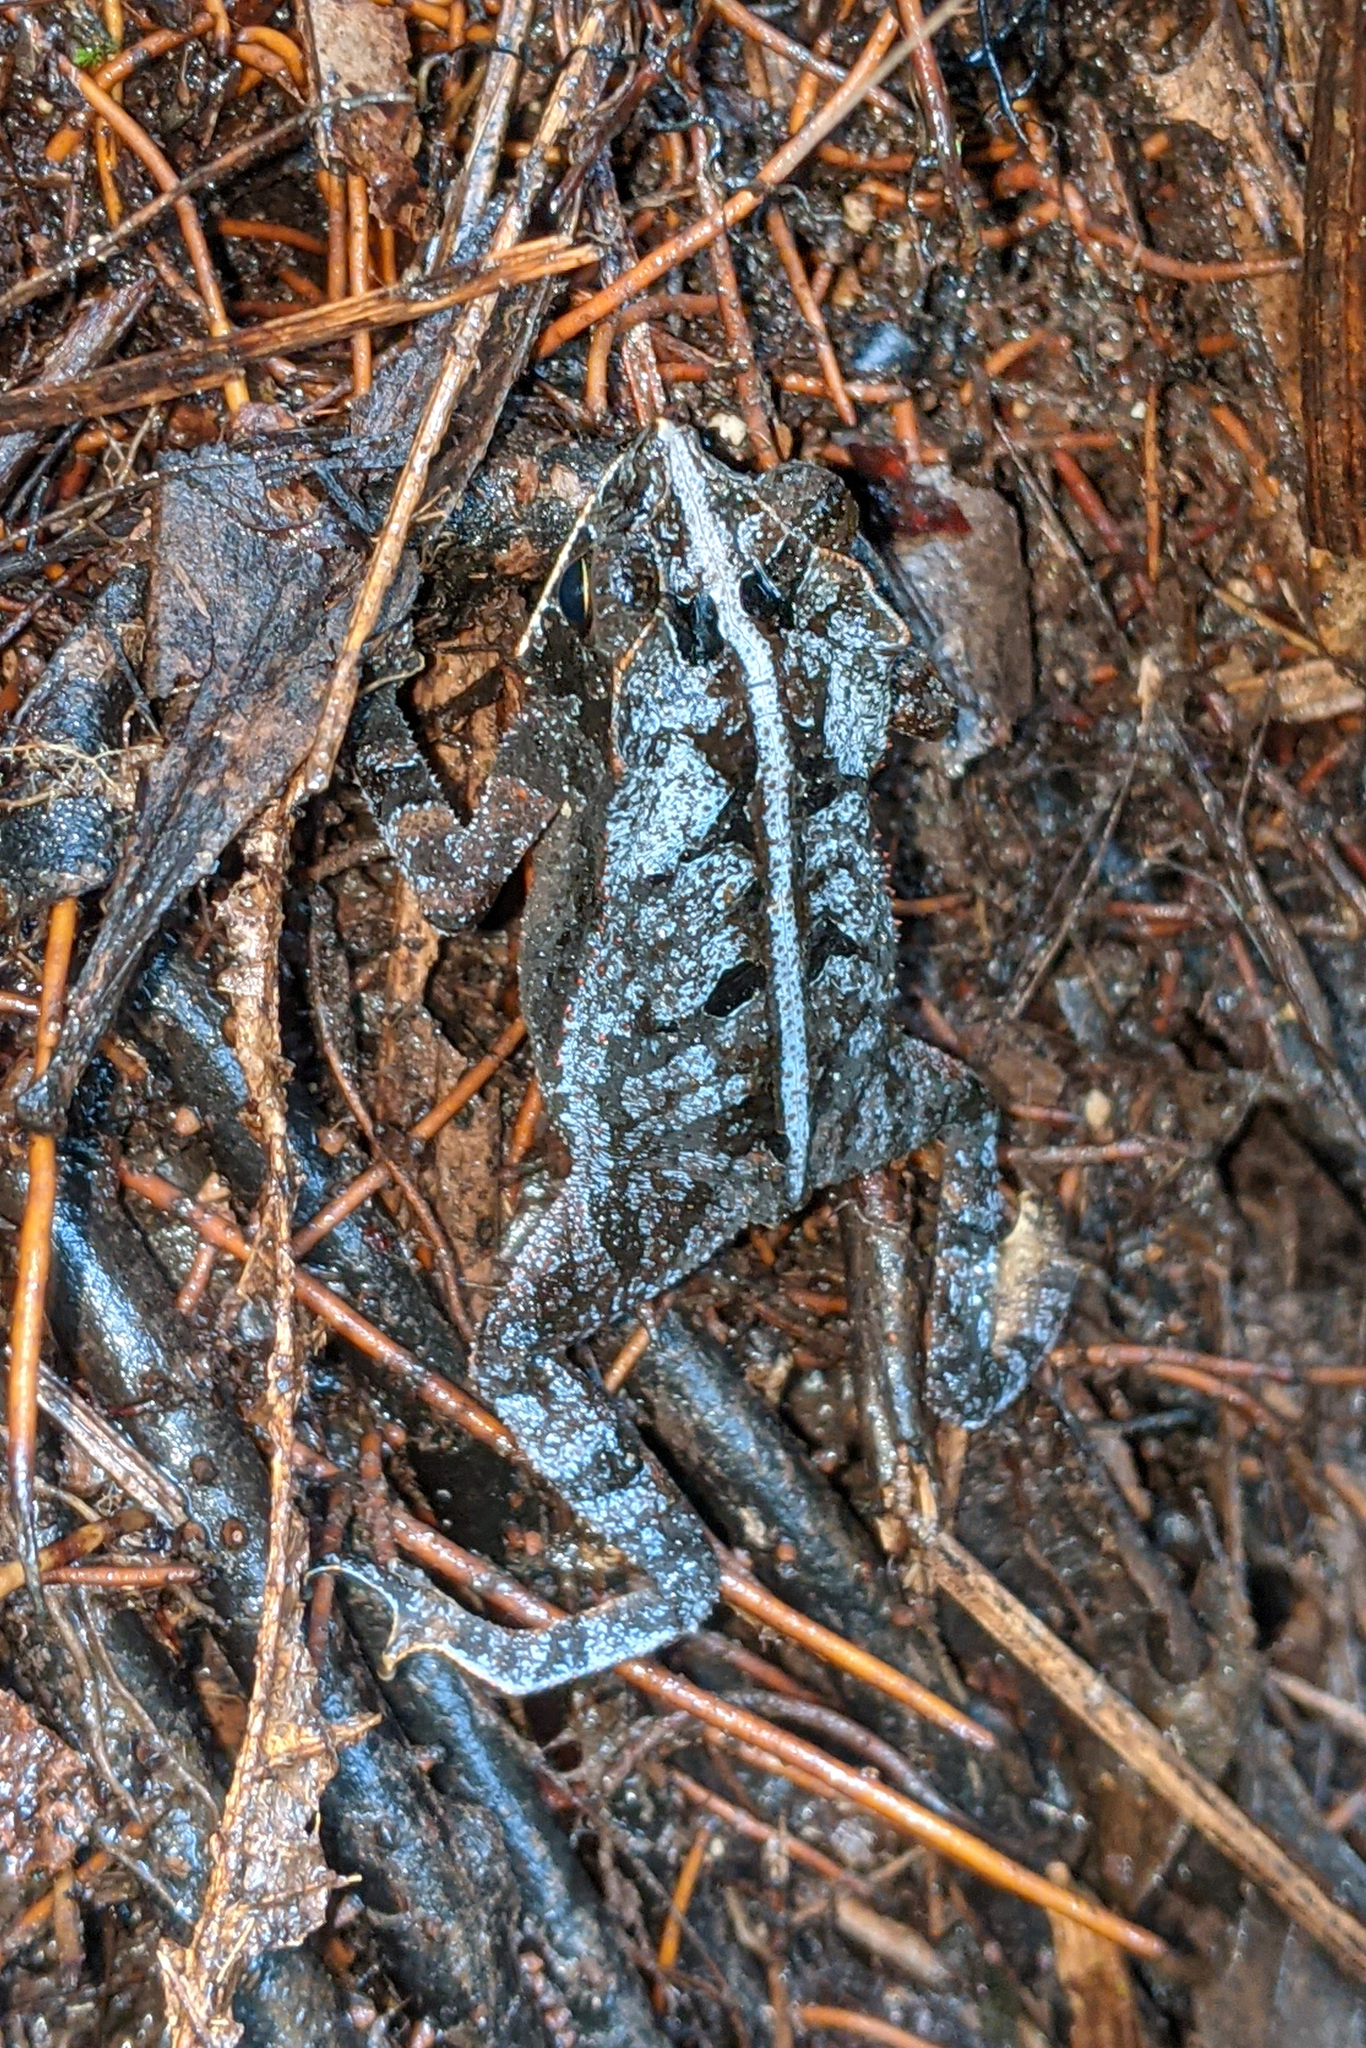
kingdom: Animalia
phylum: Chordata
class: Amphibia
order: Anura
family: Bufonidae
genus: Rhinella
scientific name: Rhinella margaritifera
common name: Mitred toad
